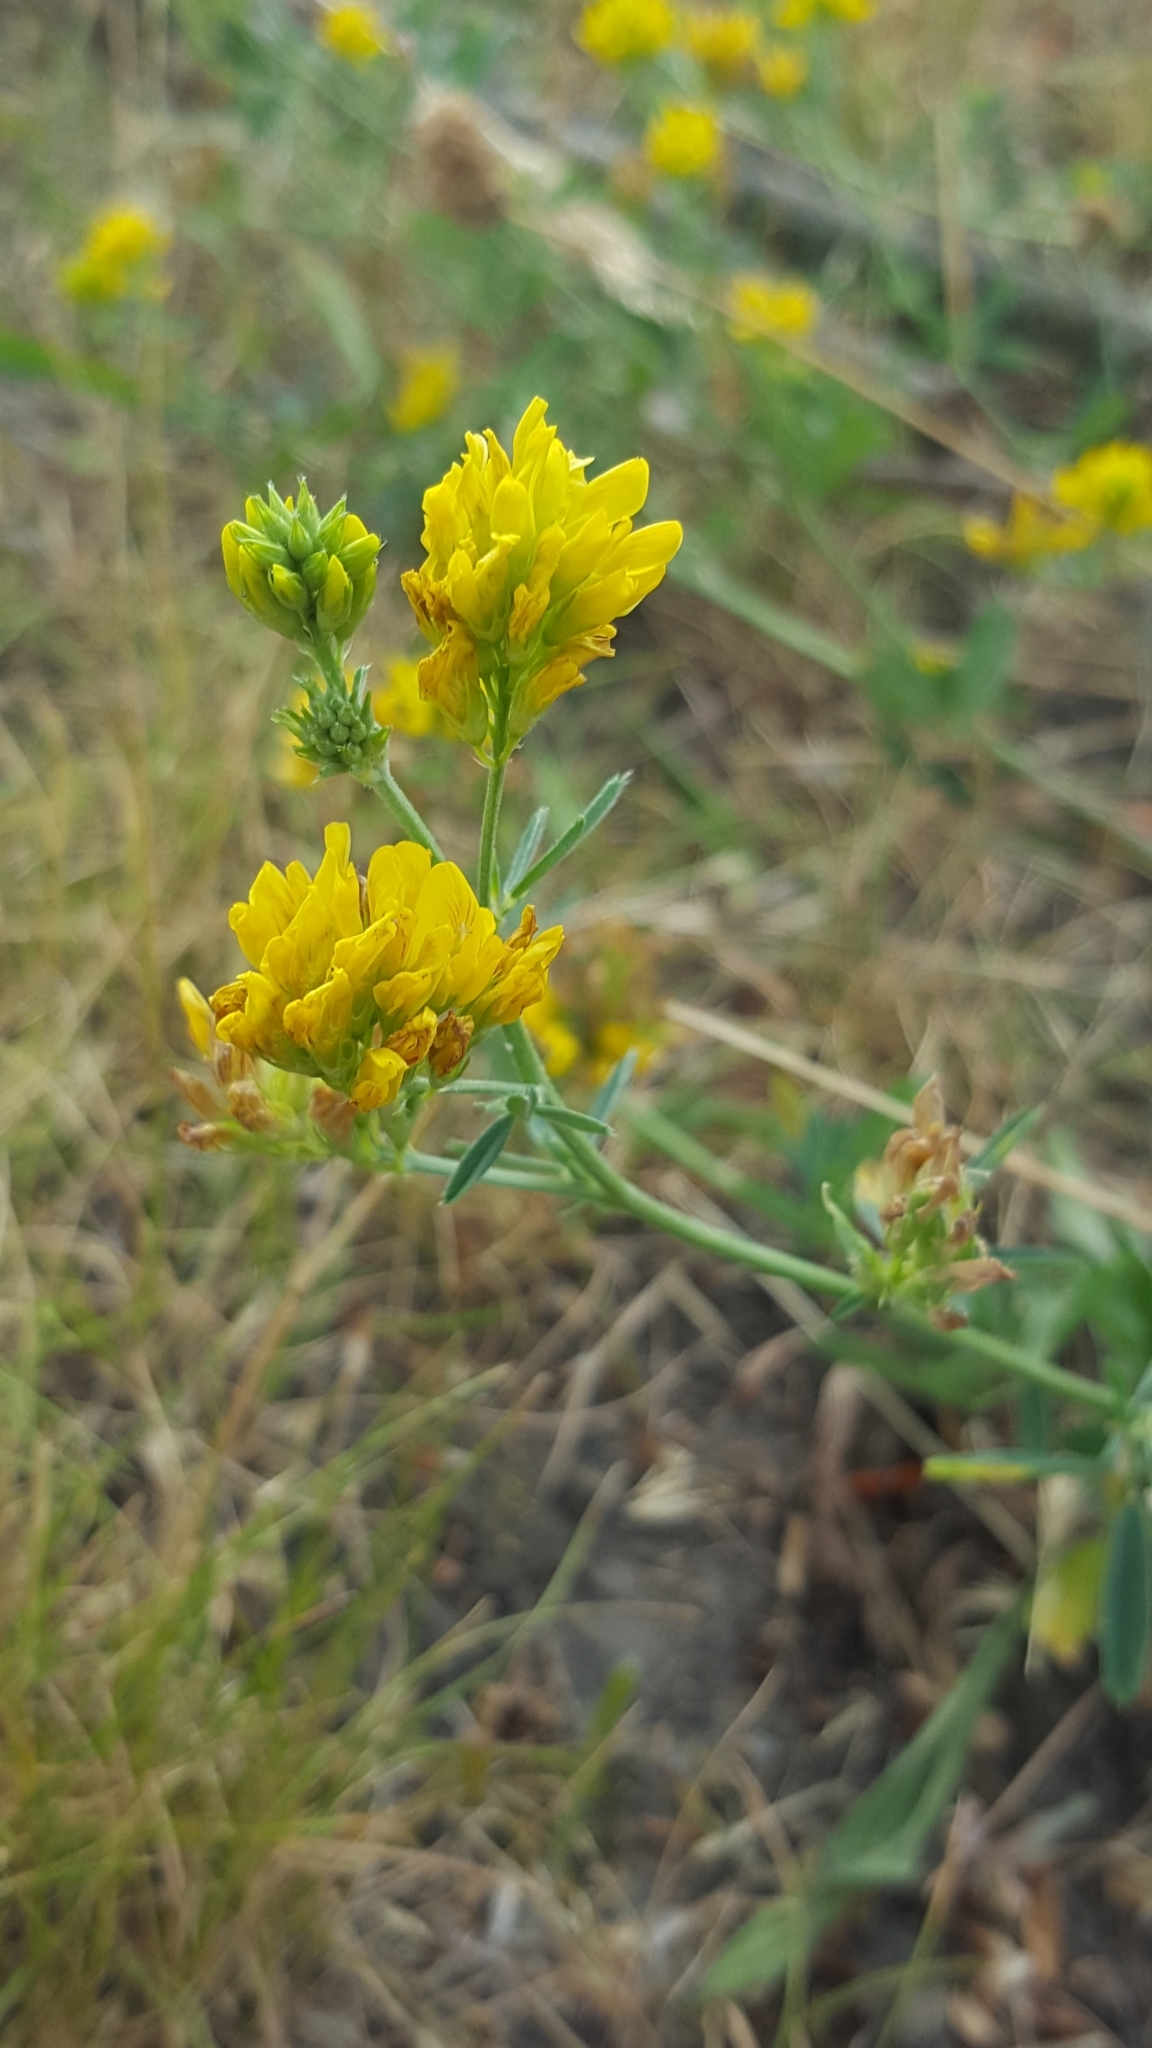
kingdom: Plantae
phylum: Tracheophyta
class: Magnoliopsida
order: Fabales
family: Fabaceae
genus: Medicago
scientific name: Medicago falcata
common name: Sickle medick
